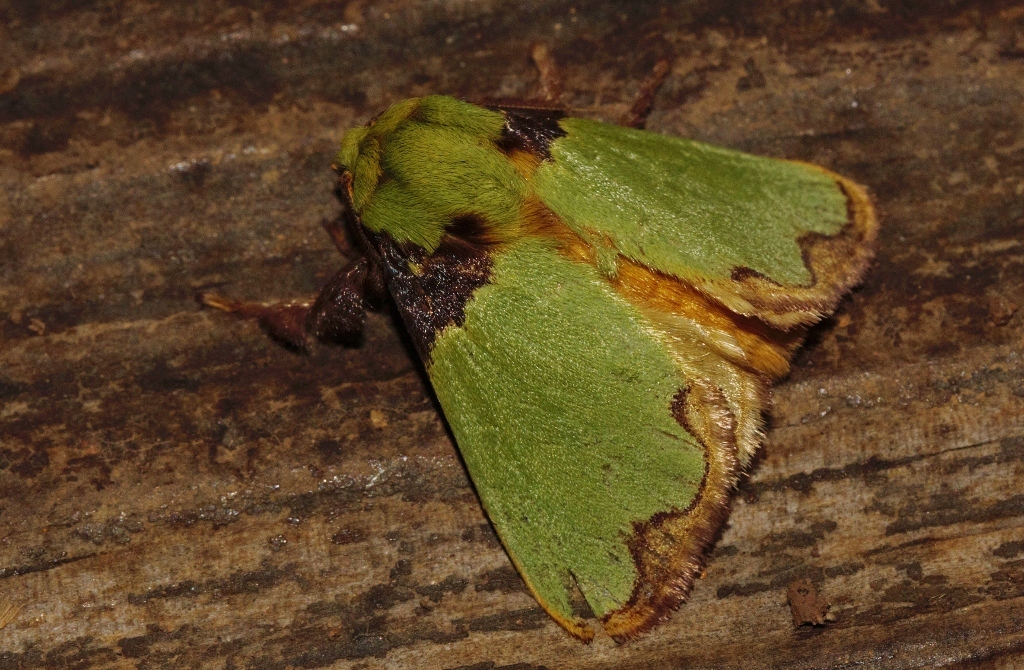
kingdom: Animalia
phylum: Arthropoda
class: Insecta
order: Lepidoptera
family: Limacodidae
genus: Parasa
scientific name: Parasa urda
